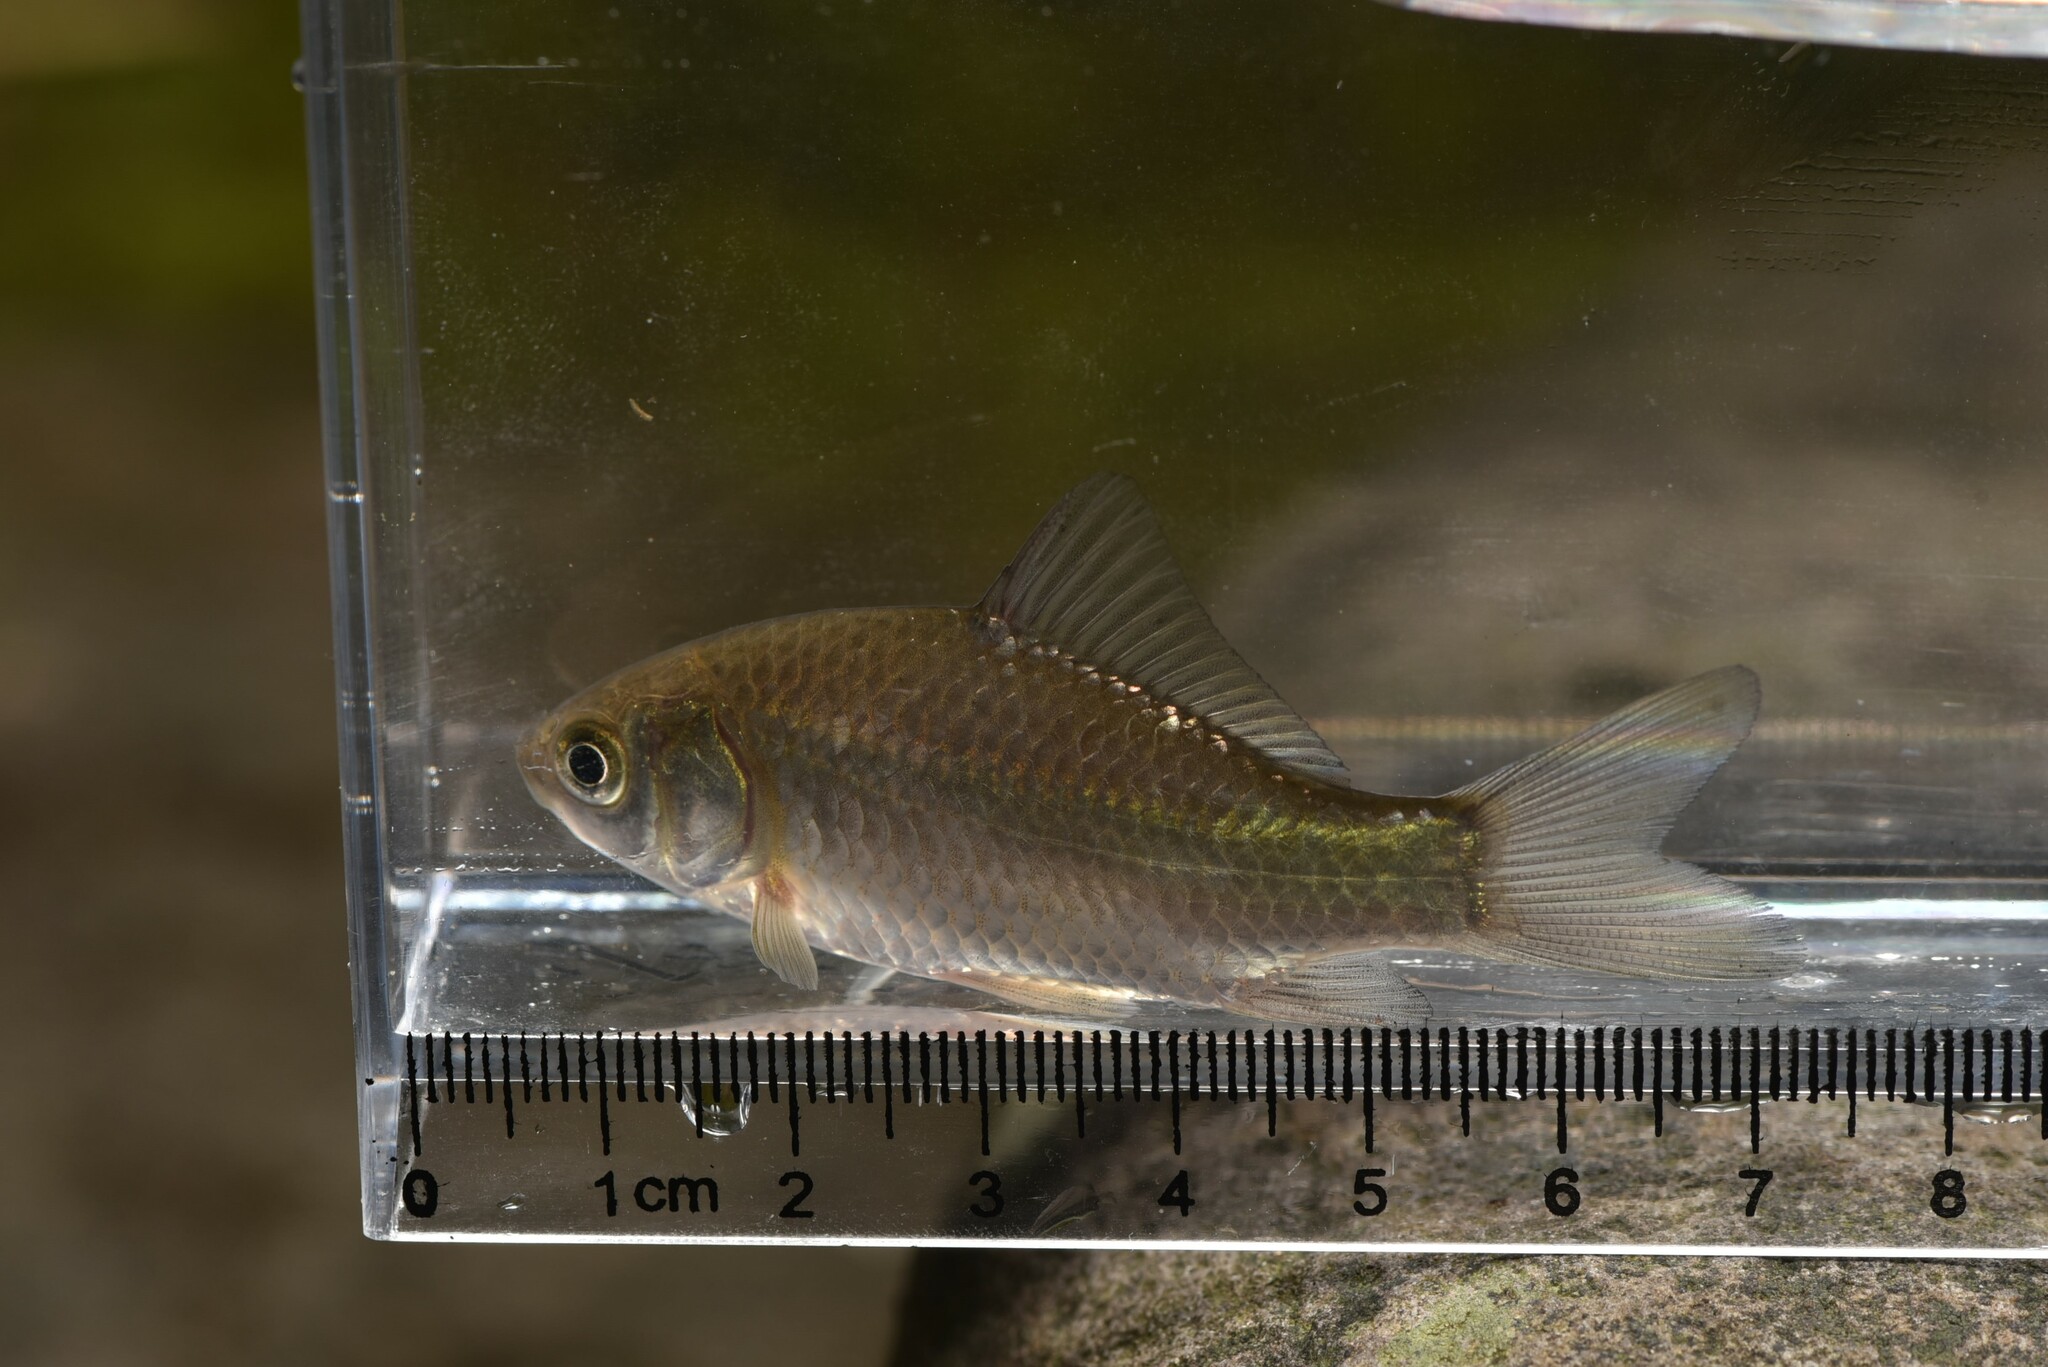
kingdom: Animalia
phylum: Chordata
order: Cypriniformes
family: Cyprinidae
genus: Carassius
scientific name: Carassius auratus
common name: Goldfish
